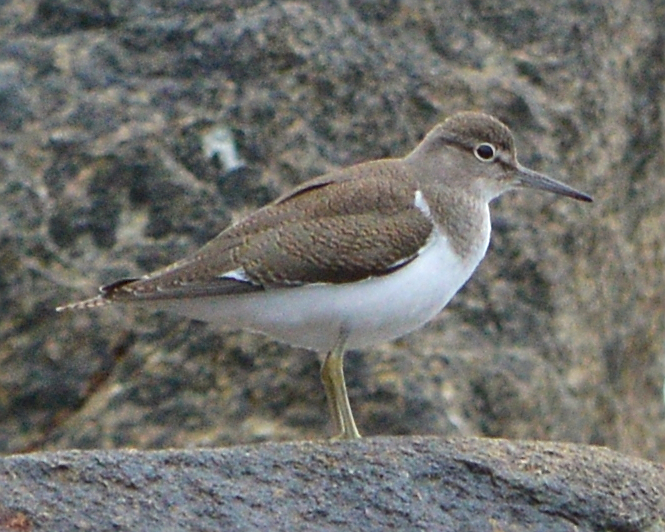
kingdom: Animalia
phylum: Chordata
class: Aves
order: Charadriiformes
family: Scolopacidae
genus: Actitis
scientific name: Actitis hypoleucos
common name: Common sandpiper
